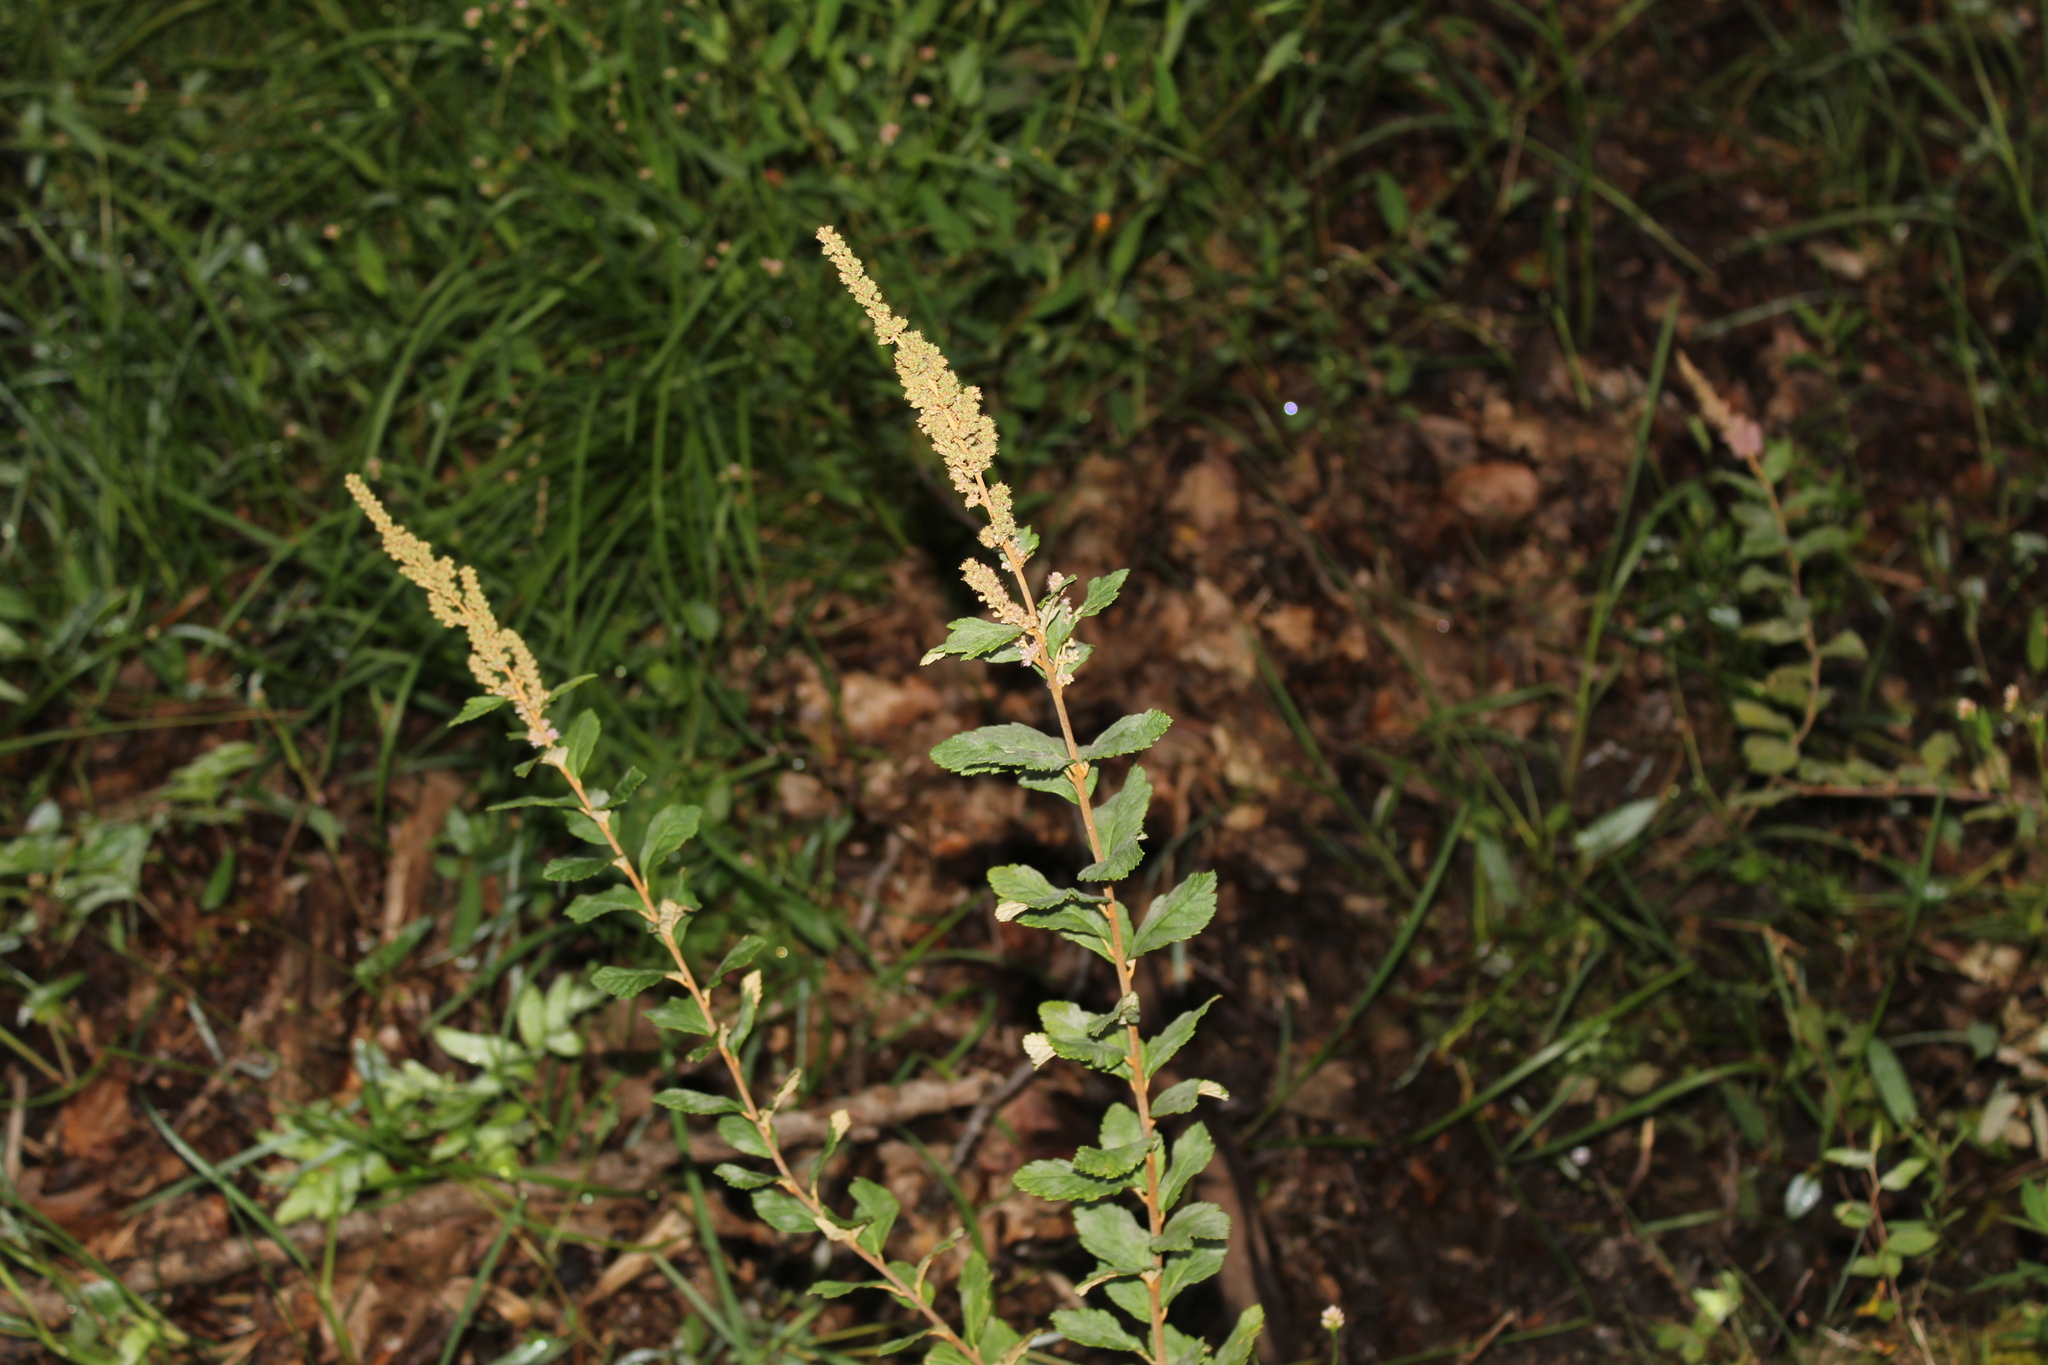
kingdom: Plantae
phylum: Tracheophyta
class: Magnoliopsida
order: Rosales
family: Rosaceae
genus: Spiraea
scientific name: Spiraea tomentosa
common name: Hardhack
